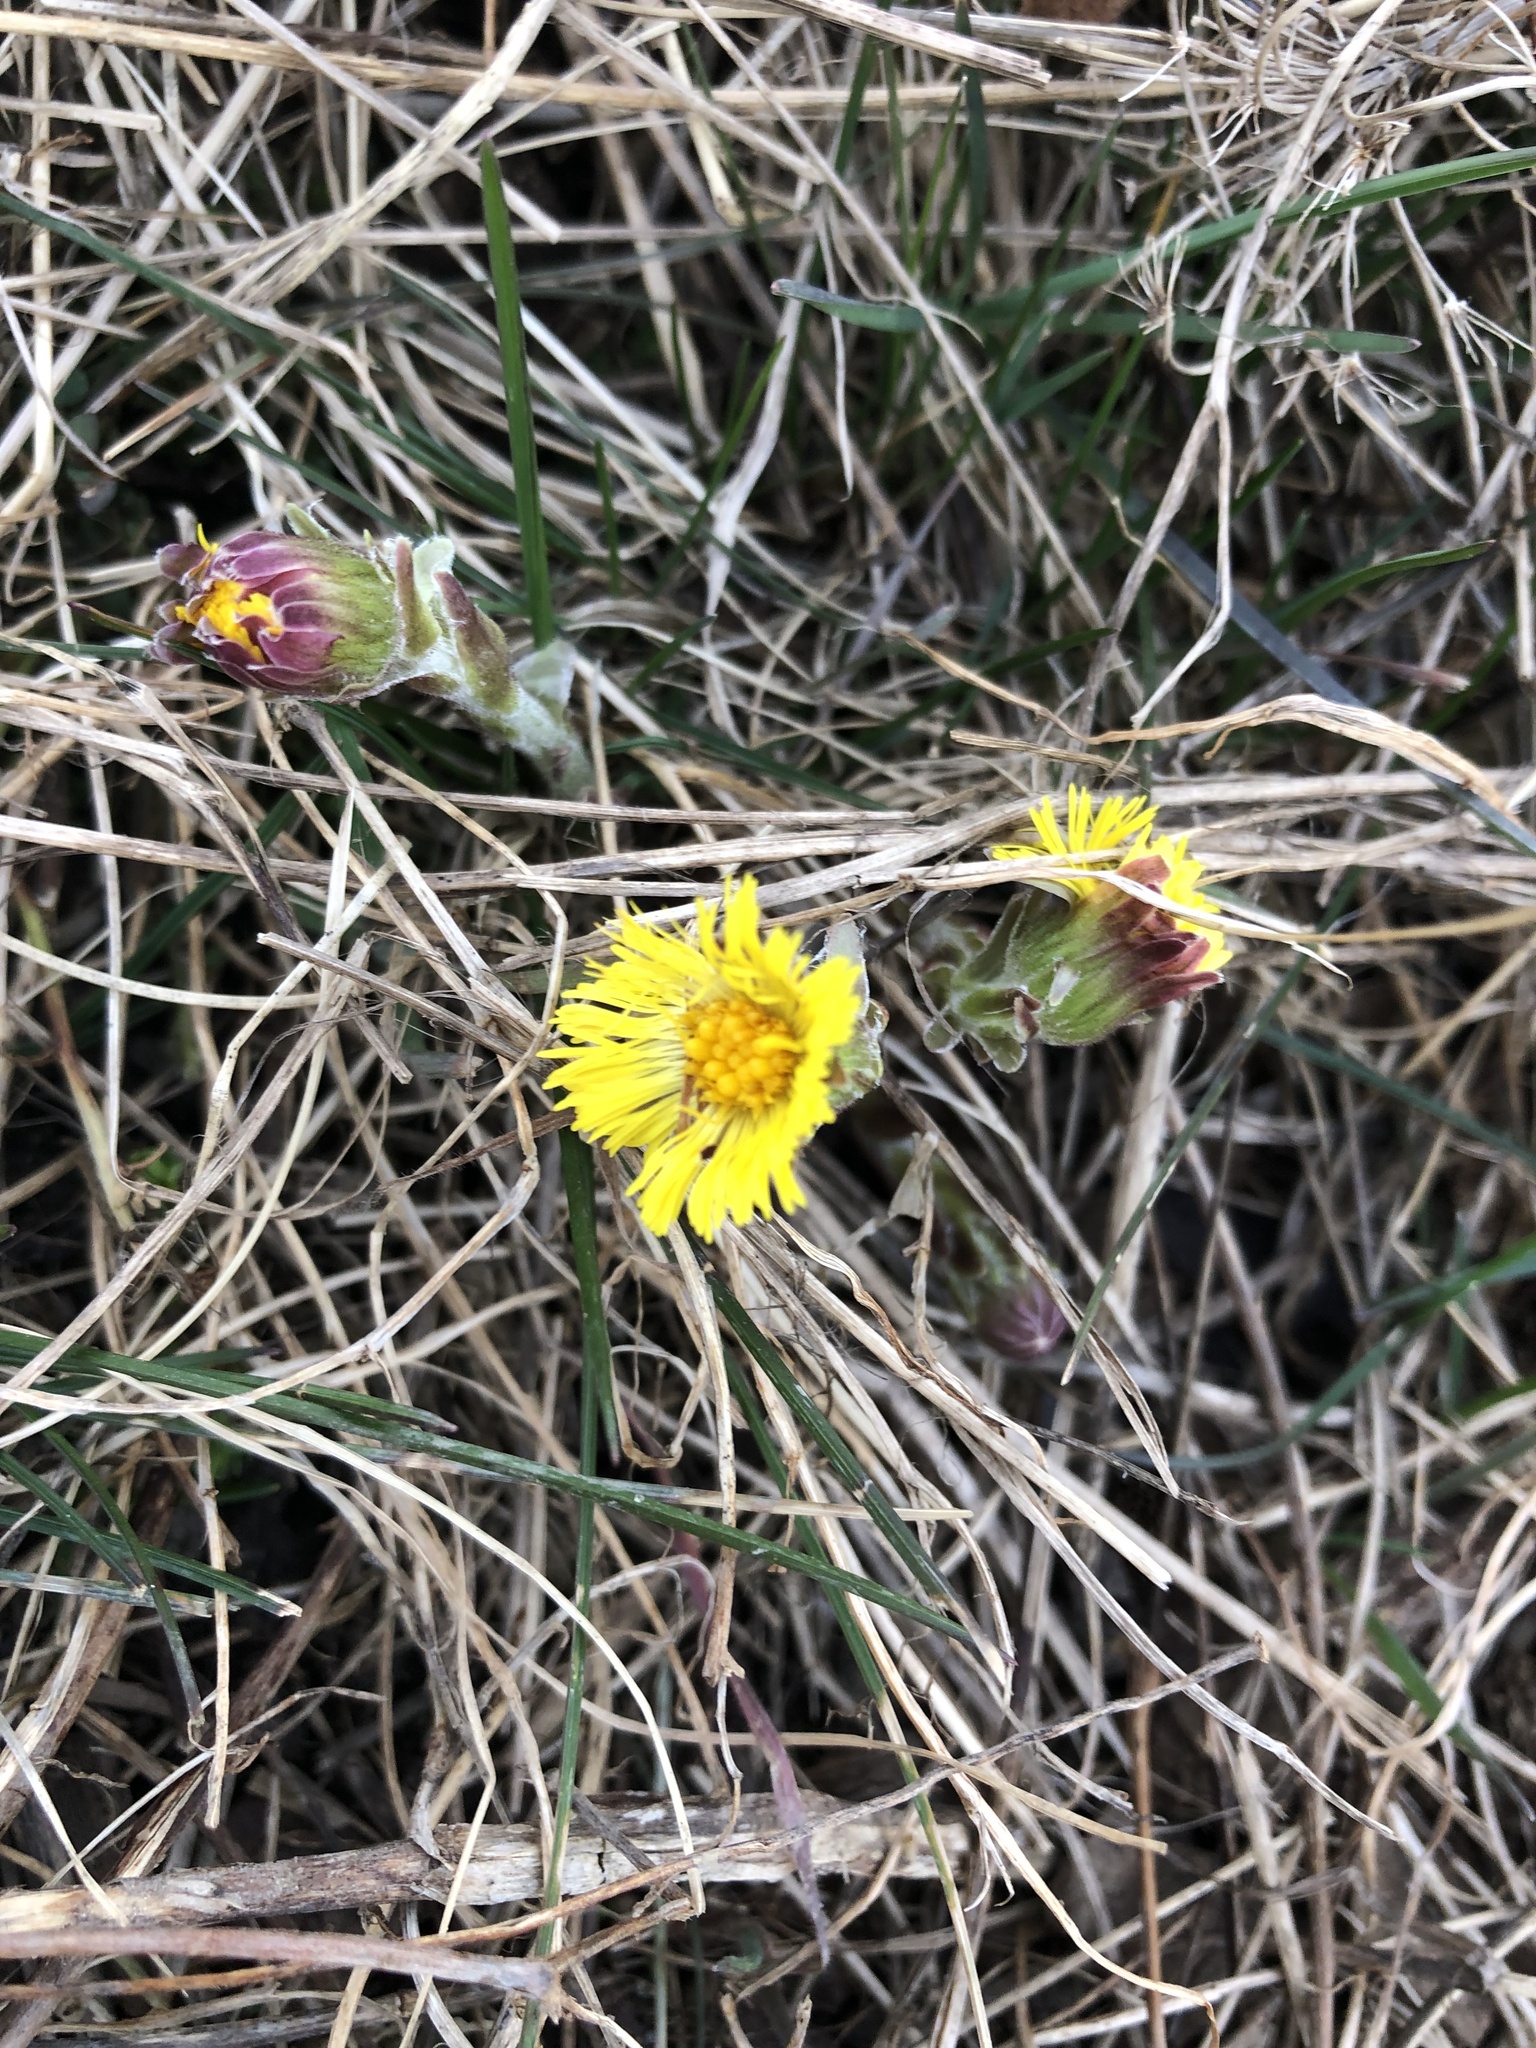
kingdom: Plantae
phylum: Tracheophyta
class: Magnoliopsida
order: Asterales
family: Asteraceae
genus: Tussilago
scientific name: Tussilago farfara
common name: Coltsfoot
